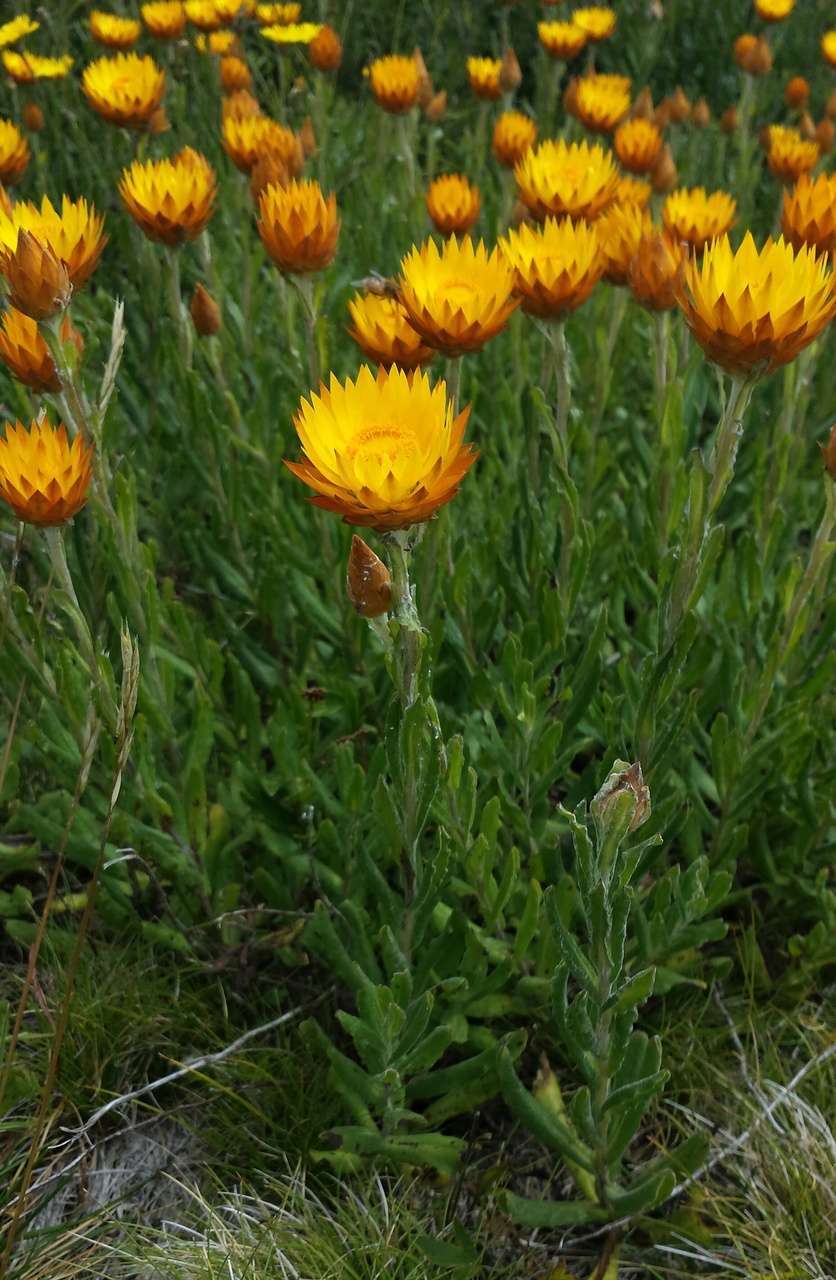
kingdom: Plantae
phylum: Tracheophyta
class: Magnoliopsida
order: Asterales
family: Asteraceae
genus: Xerochrysum
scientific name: Xerochrysum subundulatum
